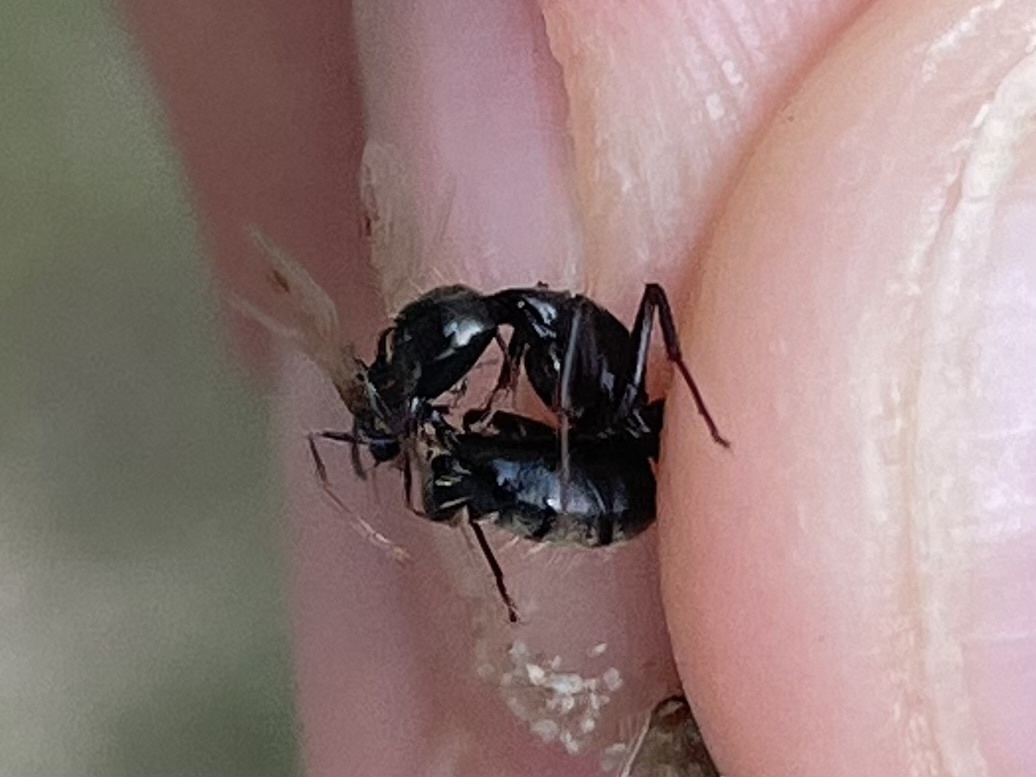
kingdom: Animalia
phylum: Arthropoda
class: Insecta
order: Hymenoptera
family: Formicidae
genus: Camponotus
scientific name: Camponotus pennsylvanicus
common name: Black carpenter ant
